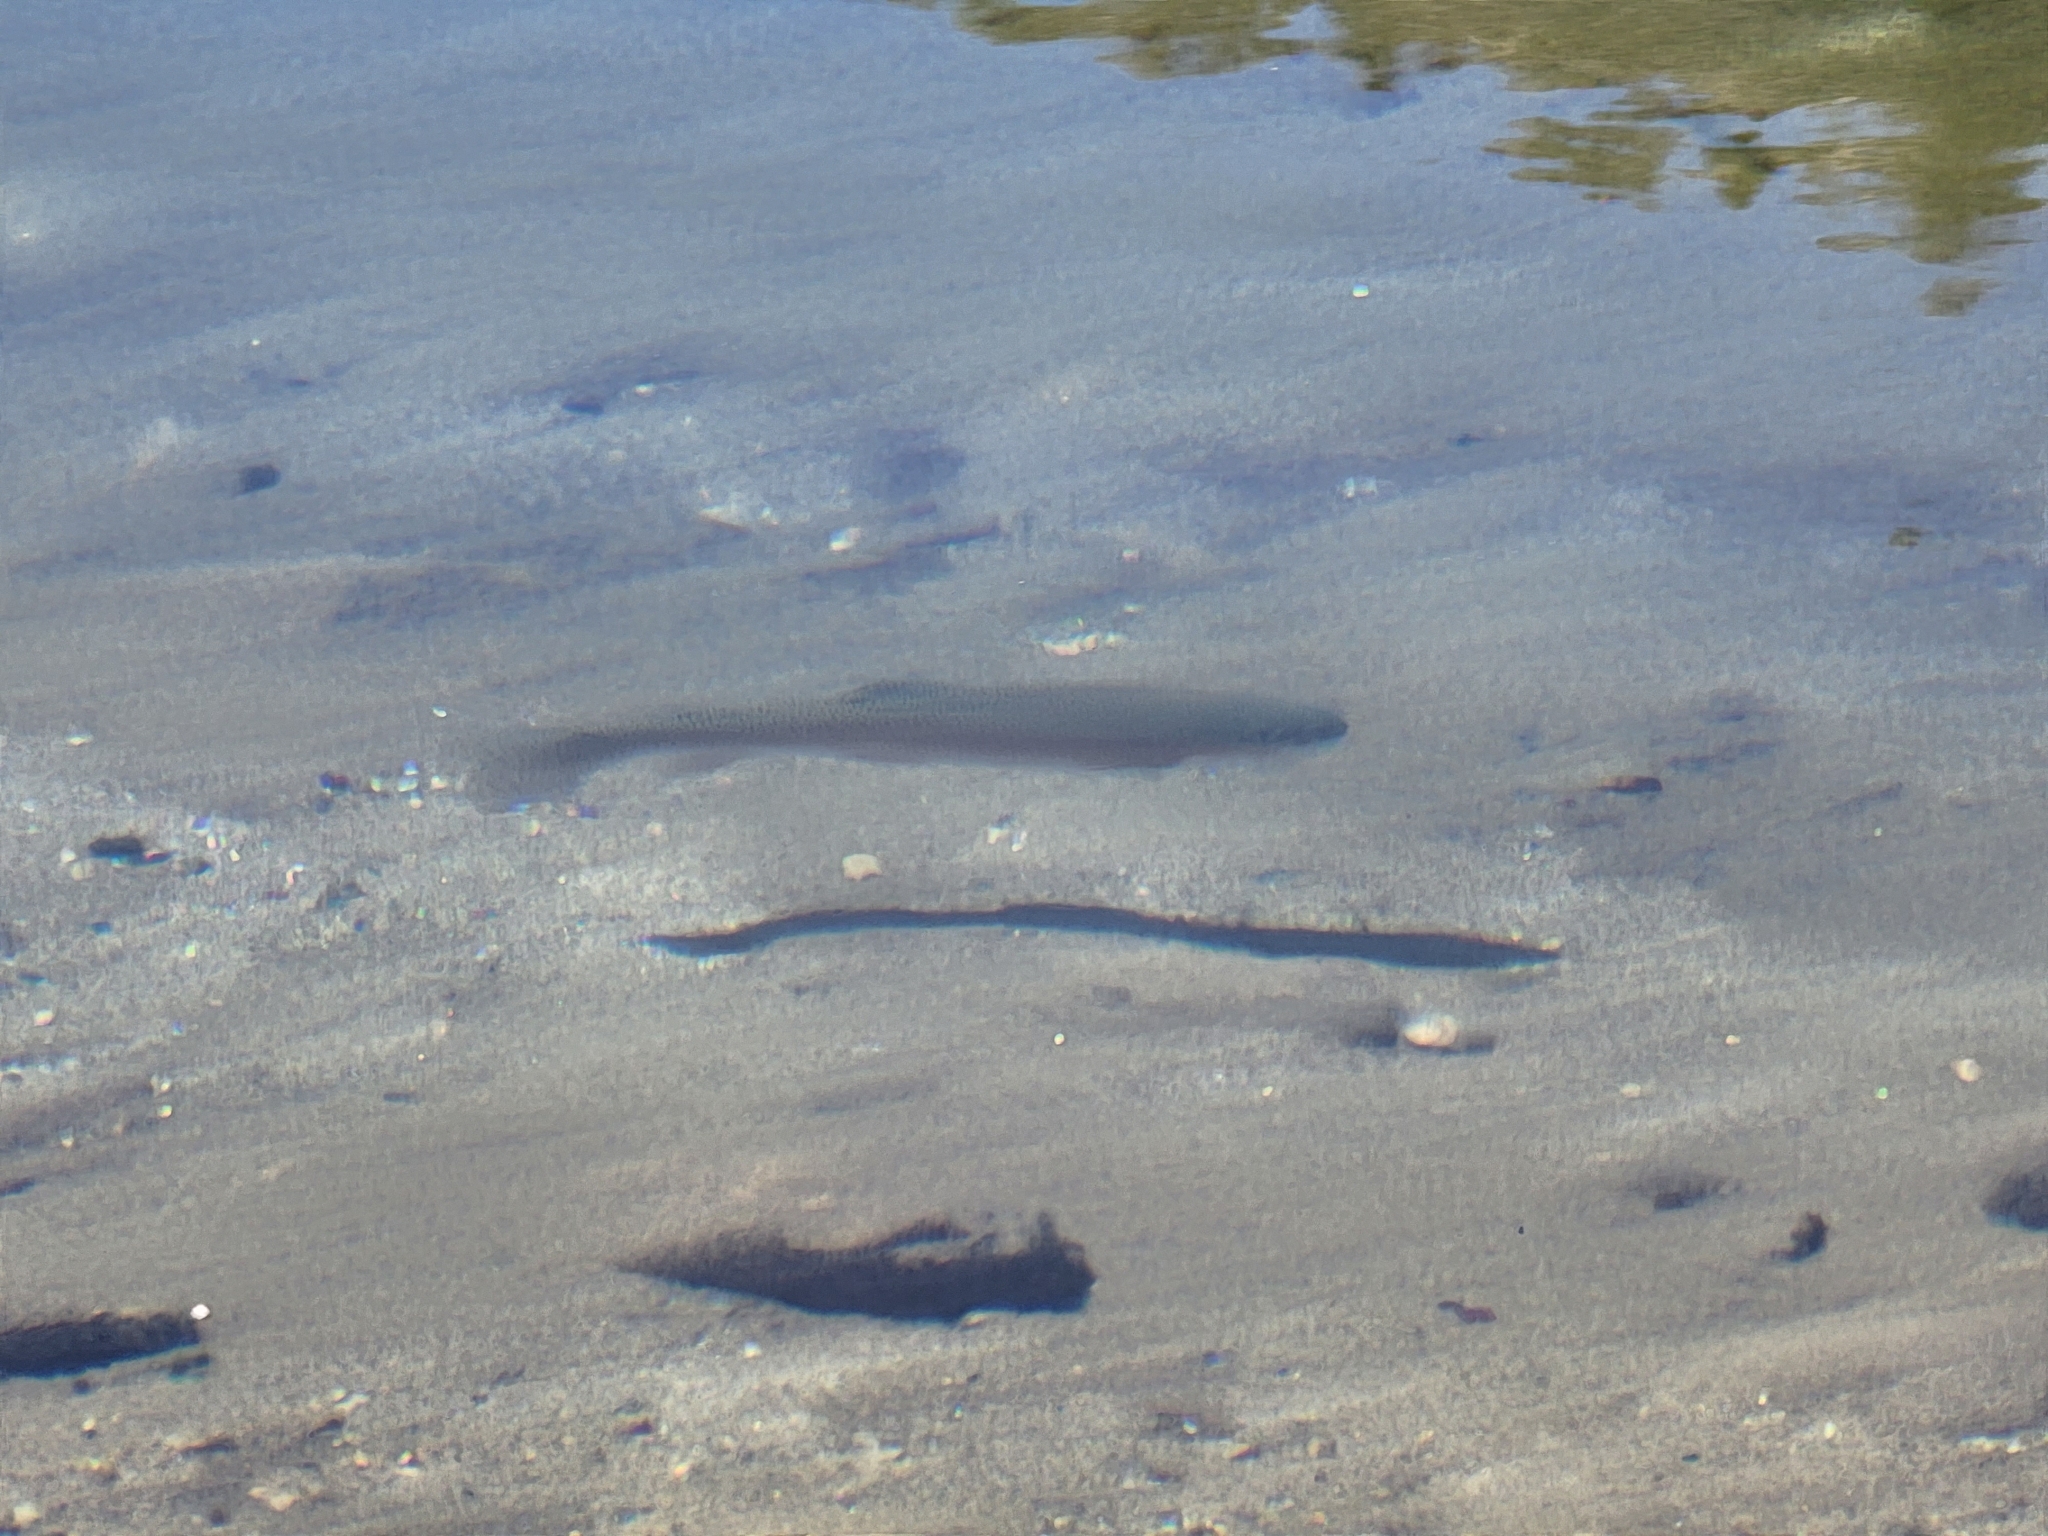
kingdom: Animalia
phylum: Chordata
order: Salmoniformes
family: Salmonidae
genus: Oncorhynchus
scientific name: Oncorhynchus mykiss
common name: Rainbow trout
